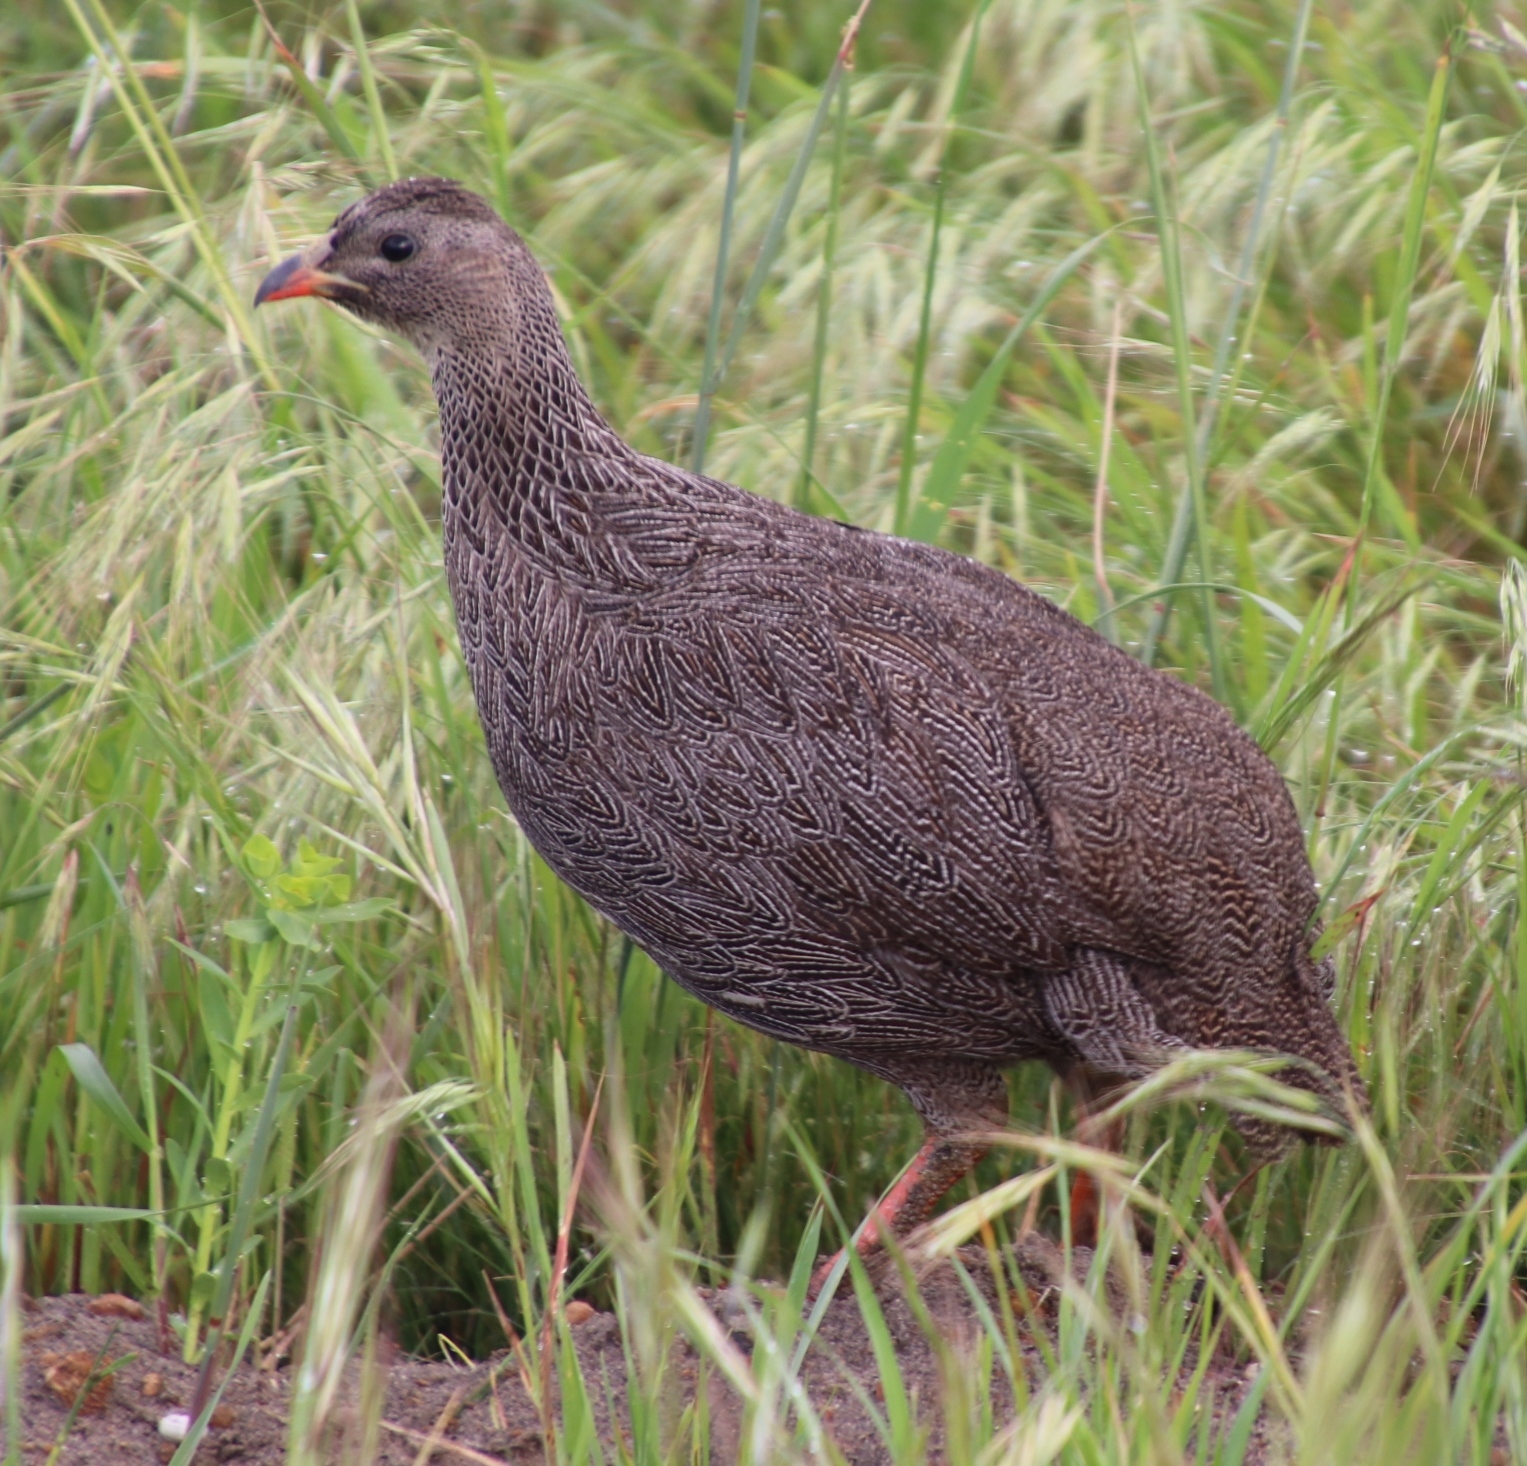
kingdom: Animalia
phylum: Chordata
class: Aves
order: Galliformes
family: Phasianidae
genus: Pternistis
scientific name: Pternistis capensis
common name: Cape spurfowl
